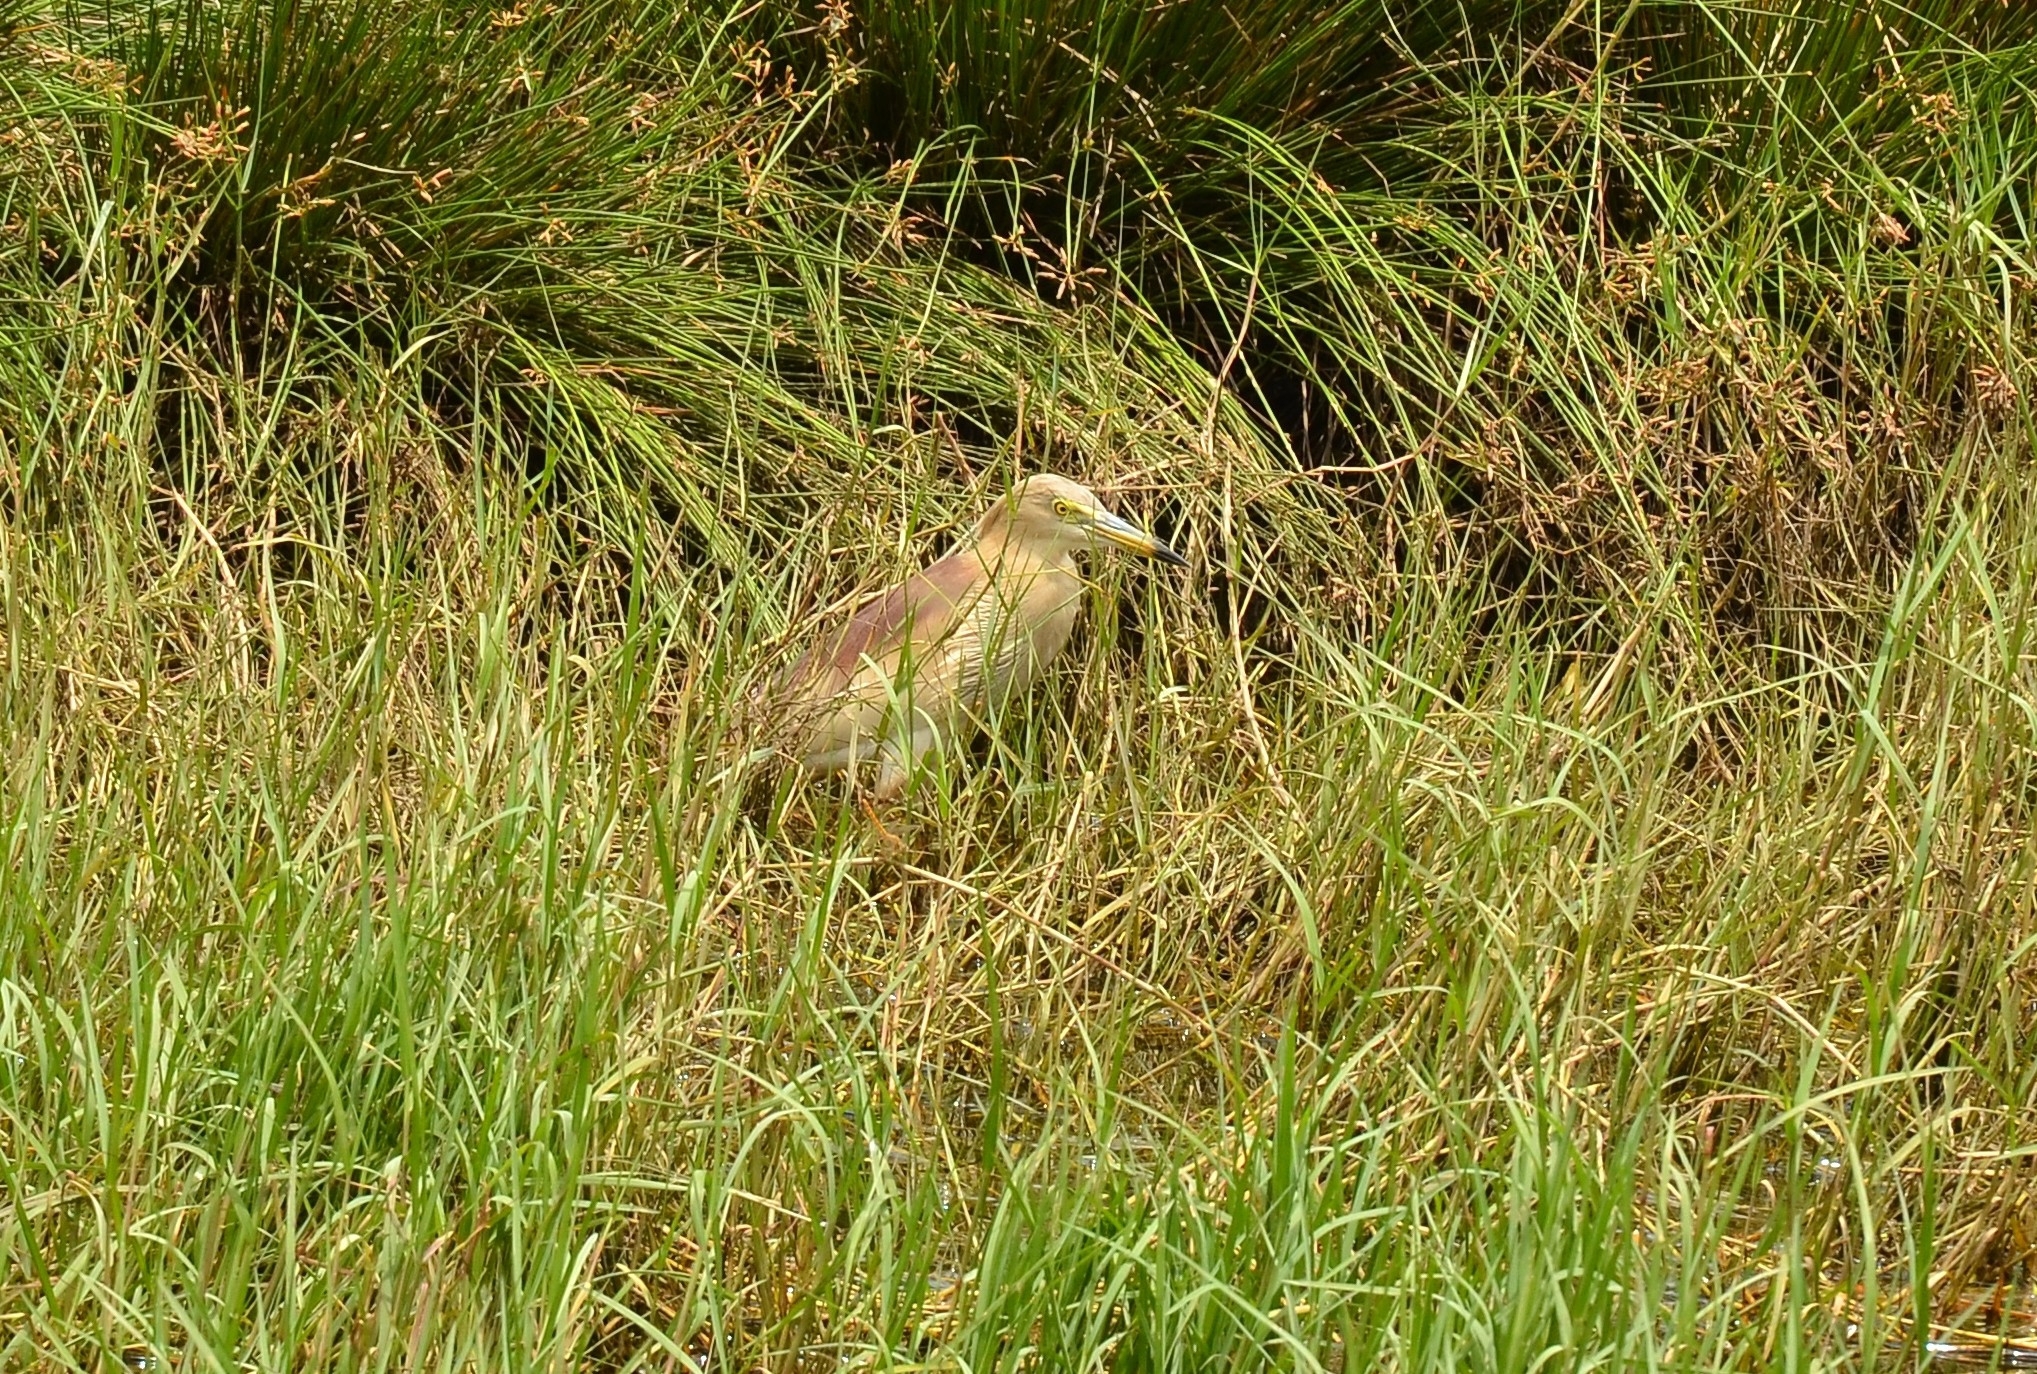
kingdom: Animalia
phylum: Chordata
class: Aves
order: Pelecaniformes
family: Ardeidae
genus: Ardeola
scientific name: Ardeola grayii
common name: Indian pond heron
